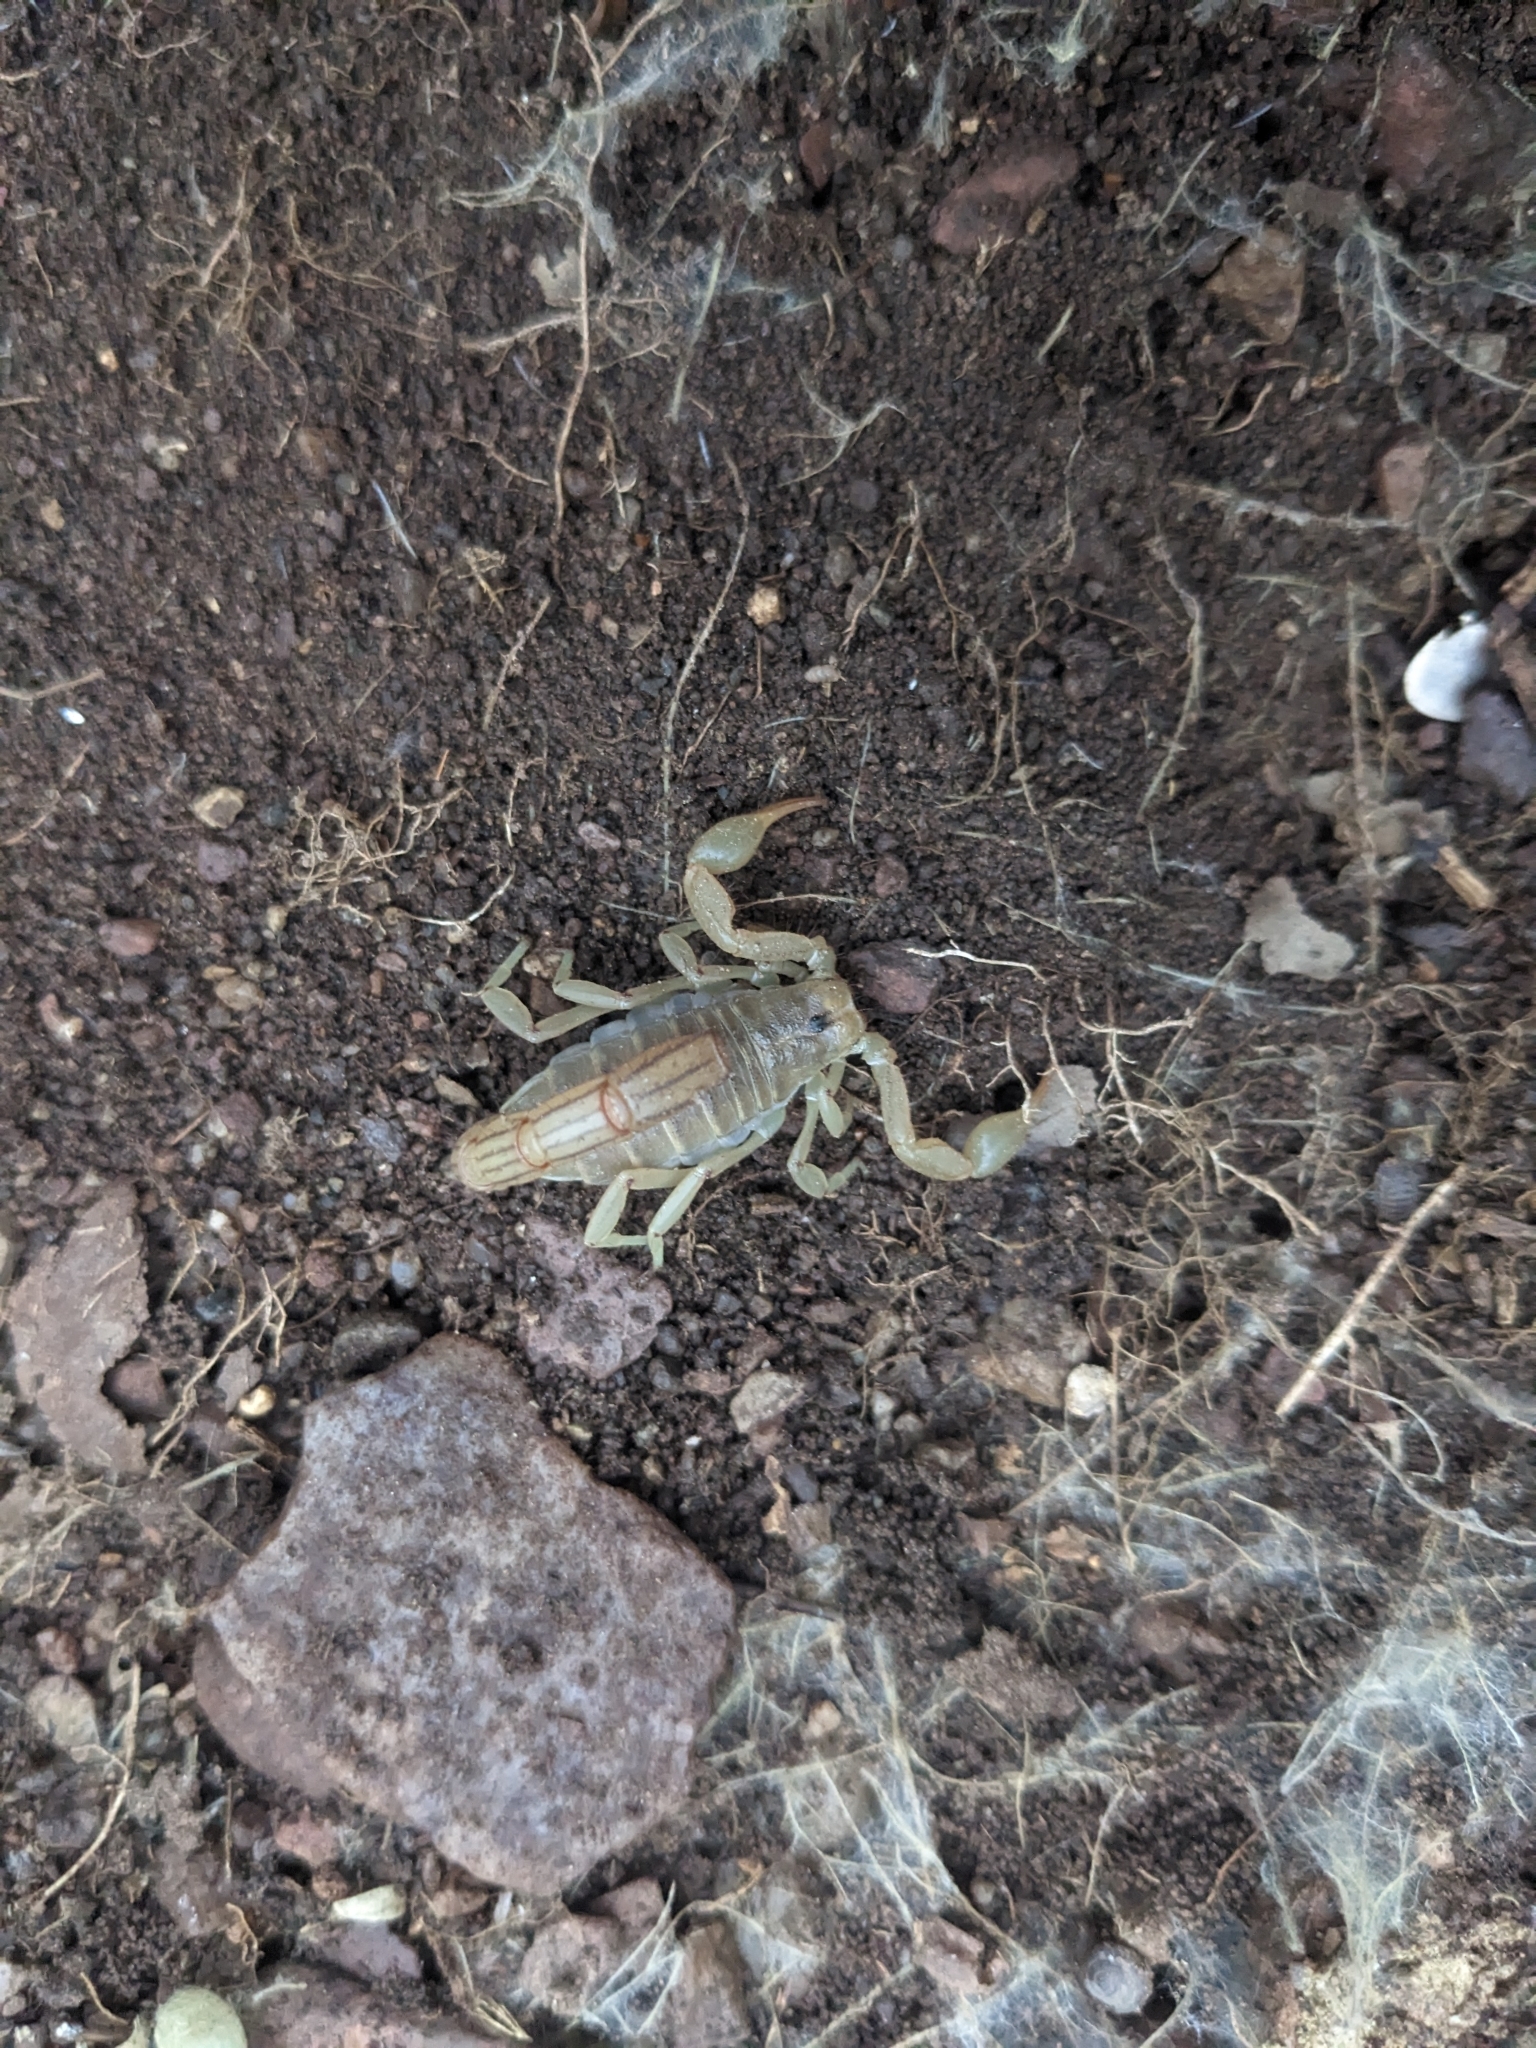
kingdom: Animalia
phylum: Arthropoda
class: Arachnida
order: Scorpiones
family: Vaejovidae
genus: Paravaejovis
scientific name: Paravaejovis spinigerus
